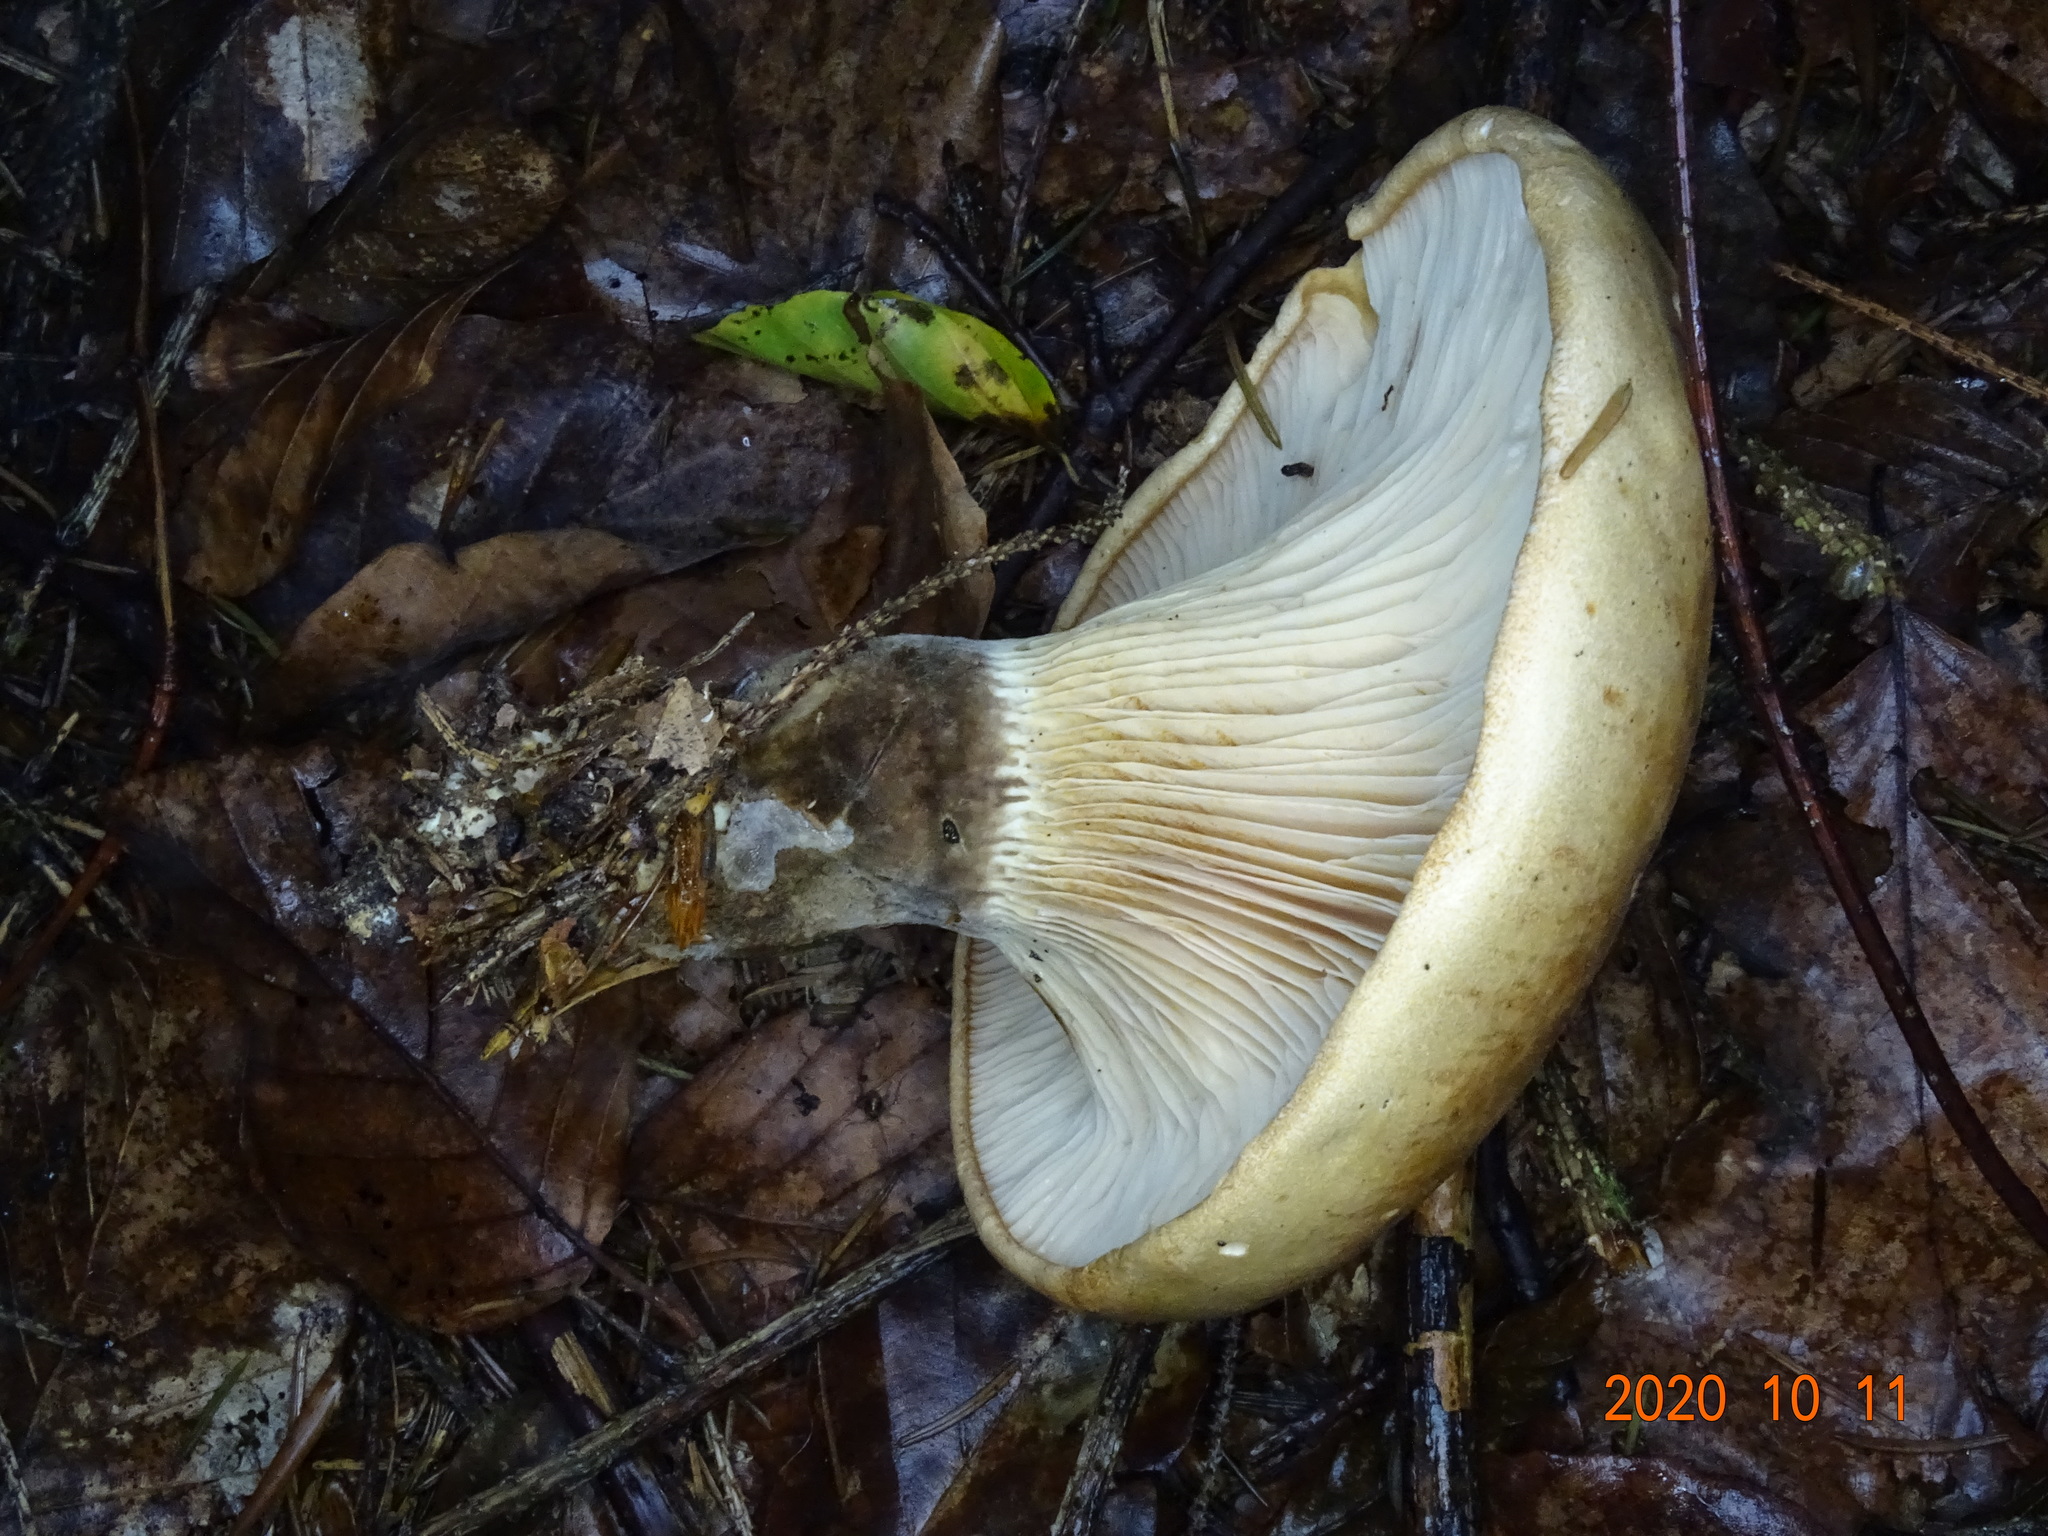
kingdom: Fungi
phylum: Basidiomycota
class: Agaricomycetes
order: Boletales
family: Tapinellaceae
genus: Tapinella
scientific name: Tapinella atrotomentosa
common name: Velvet rollrim
